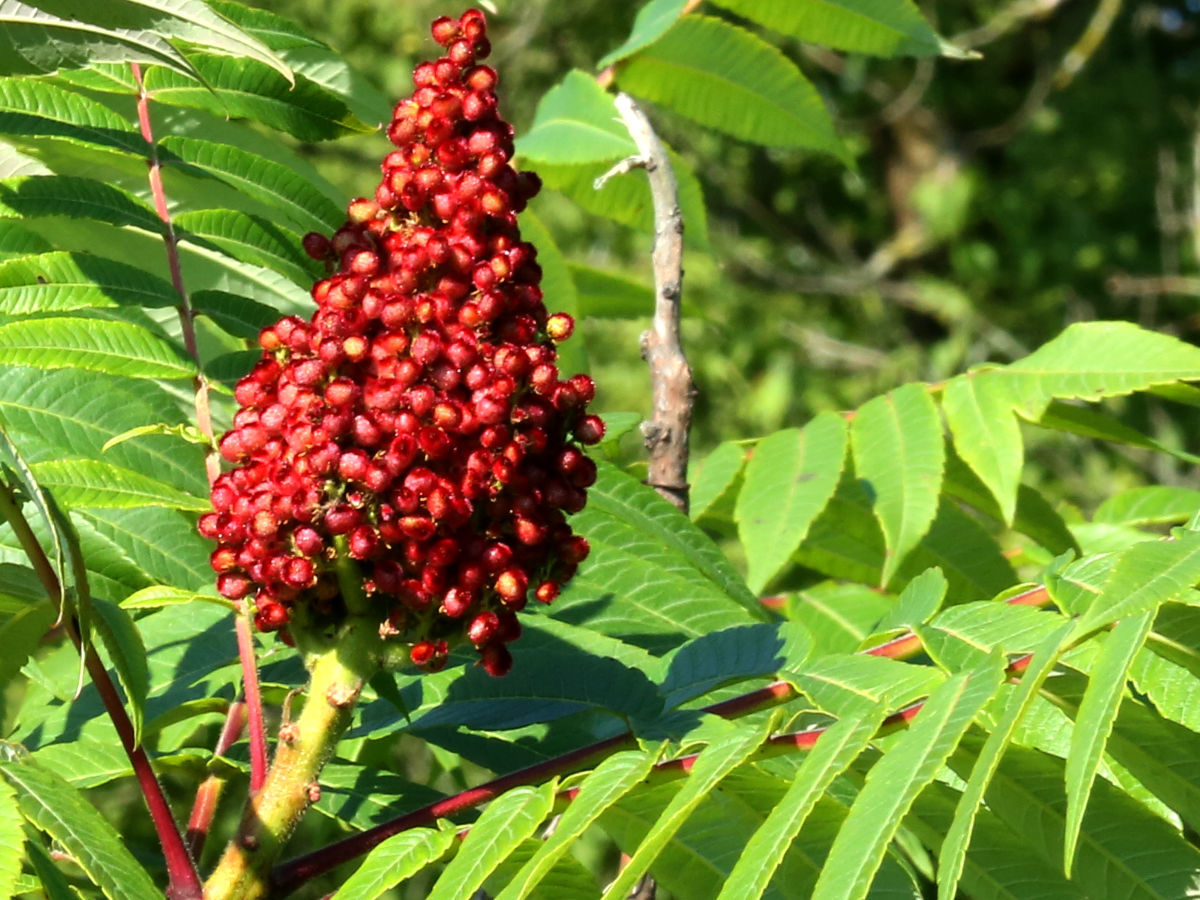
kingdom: Plantae
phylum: Tracheophyta
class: Magnoliopsida
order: Sapindales
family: Anacardiaceae
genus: Rhus
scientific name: Rhus glabra
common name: Scarlet sumac
